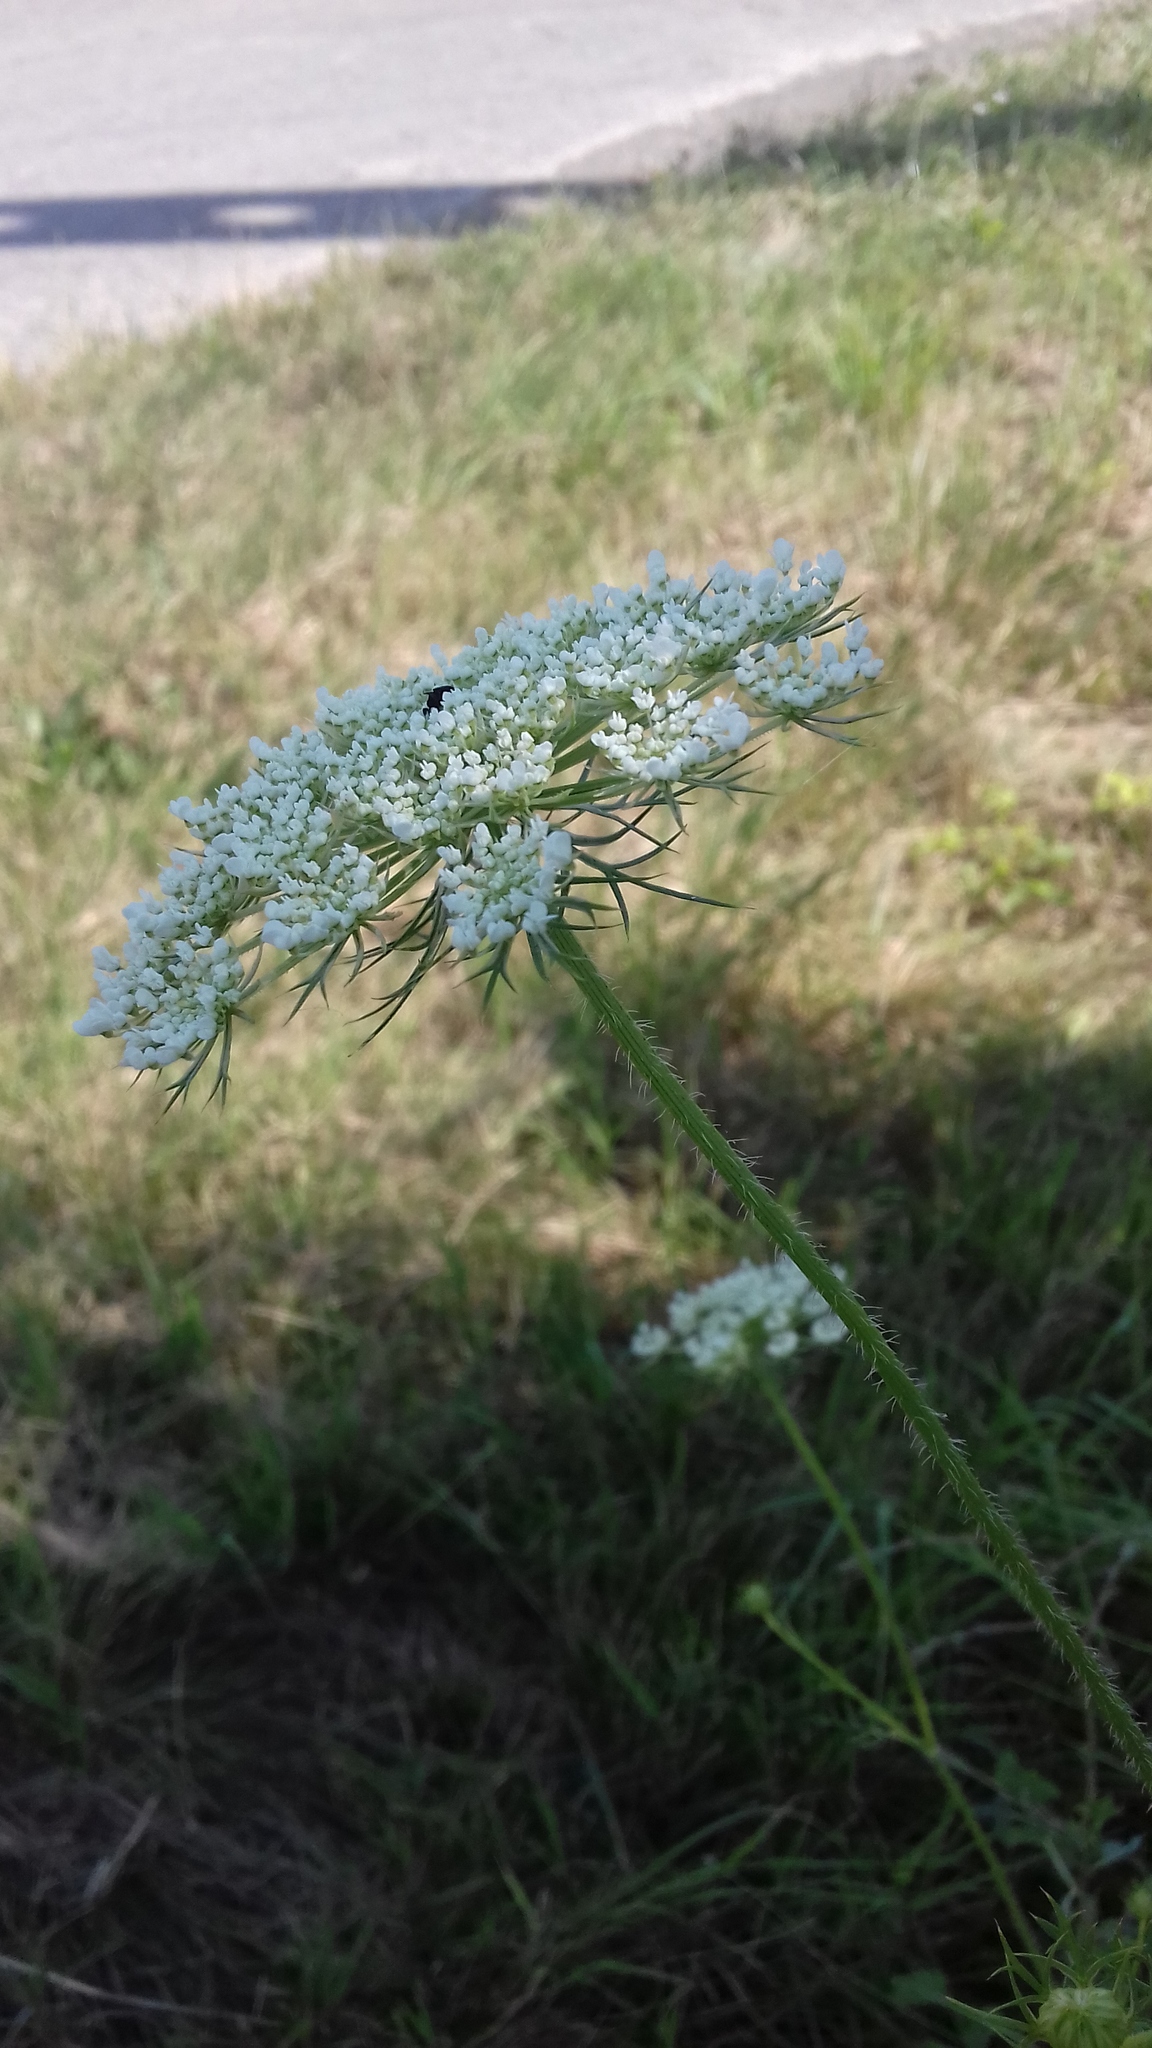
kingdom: Plantae
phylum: Tracheophyta
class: Magnoliopsida
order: Apiales
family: Apiaceae
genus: Daucus
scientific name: Daucus carota
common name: Wild carrot
